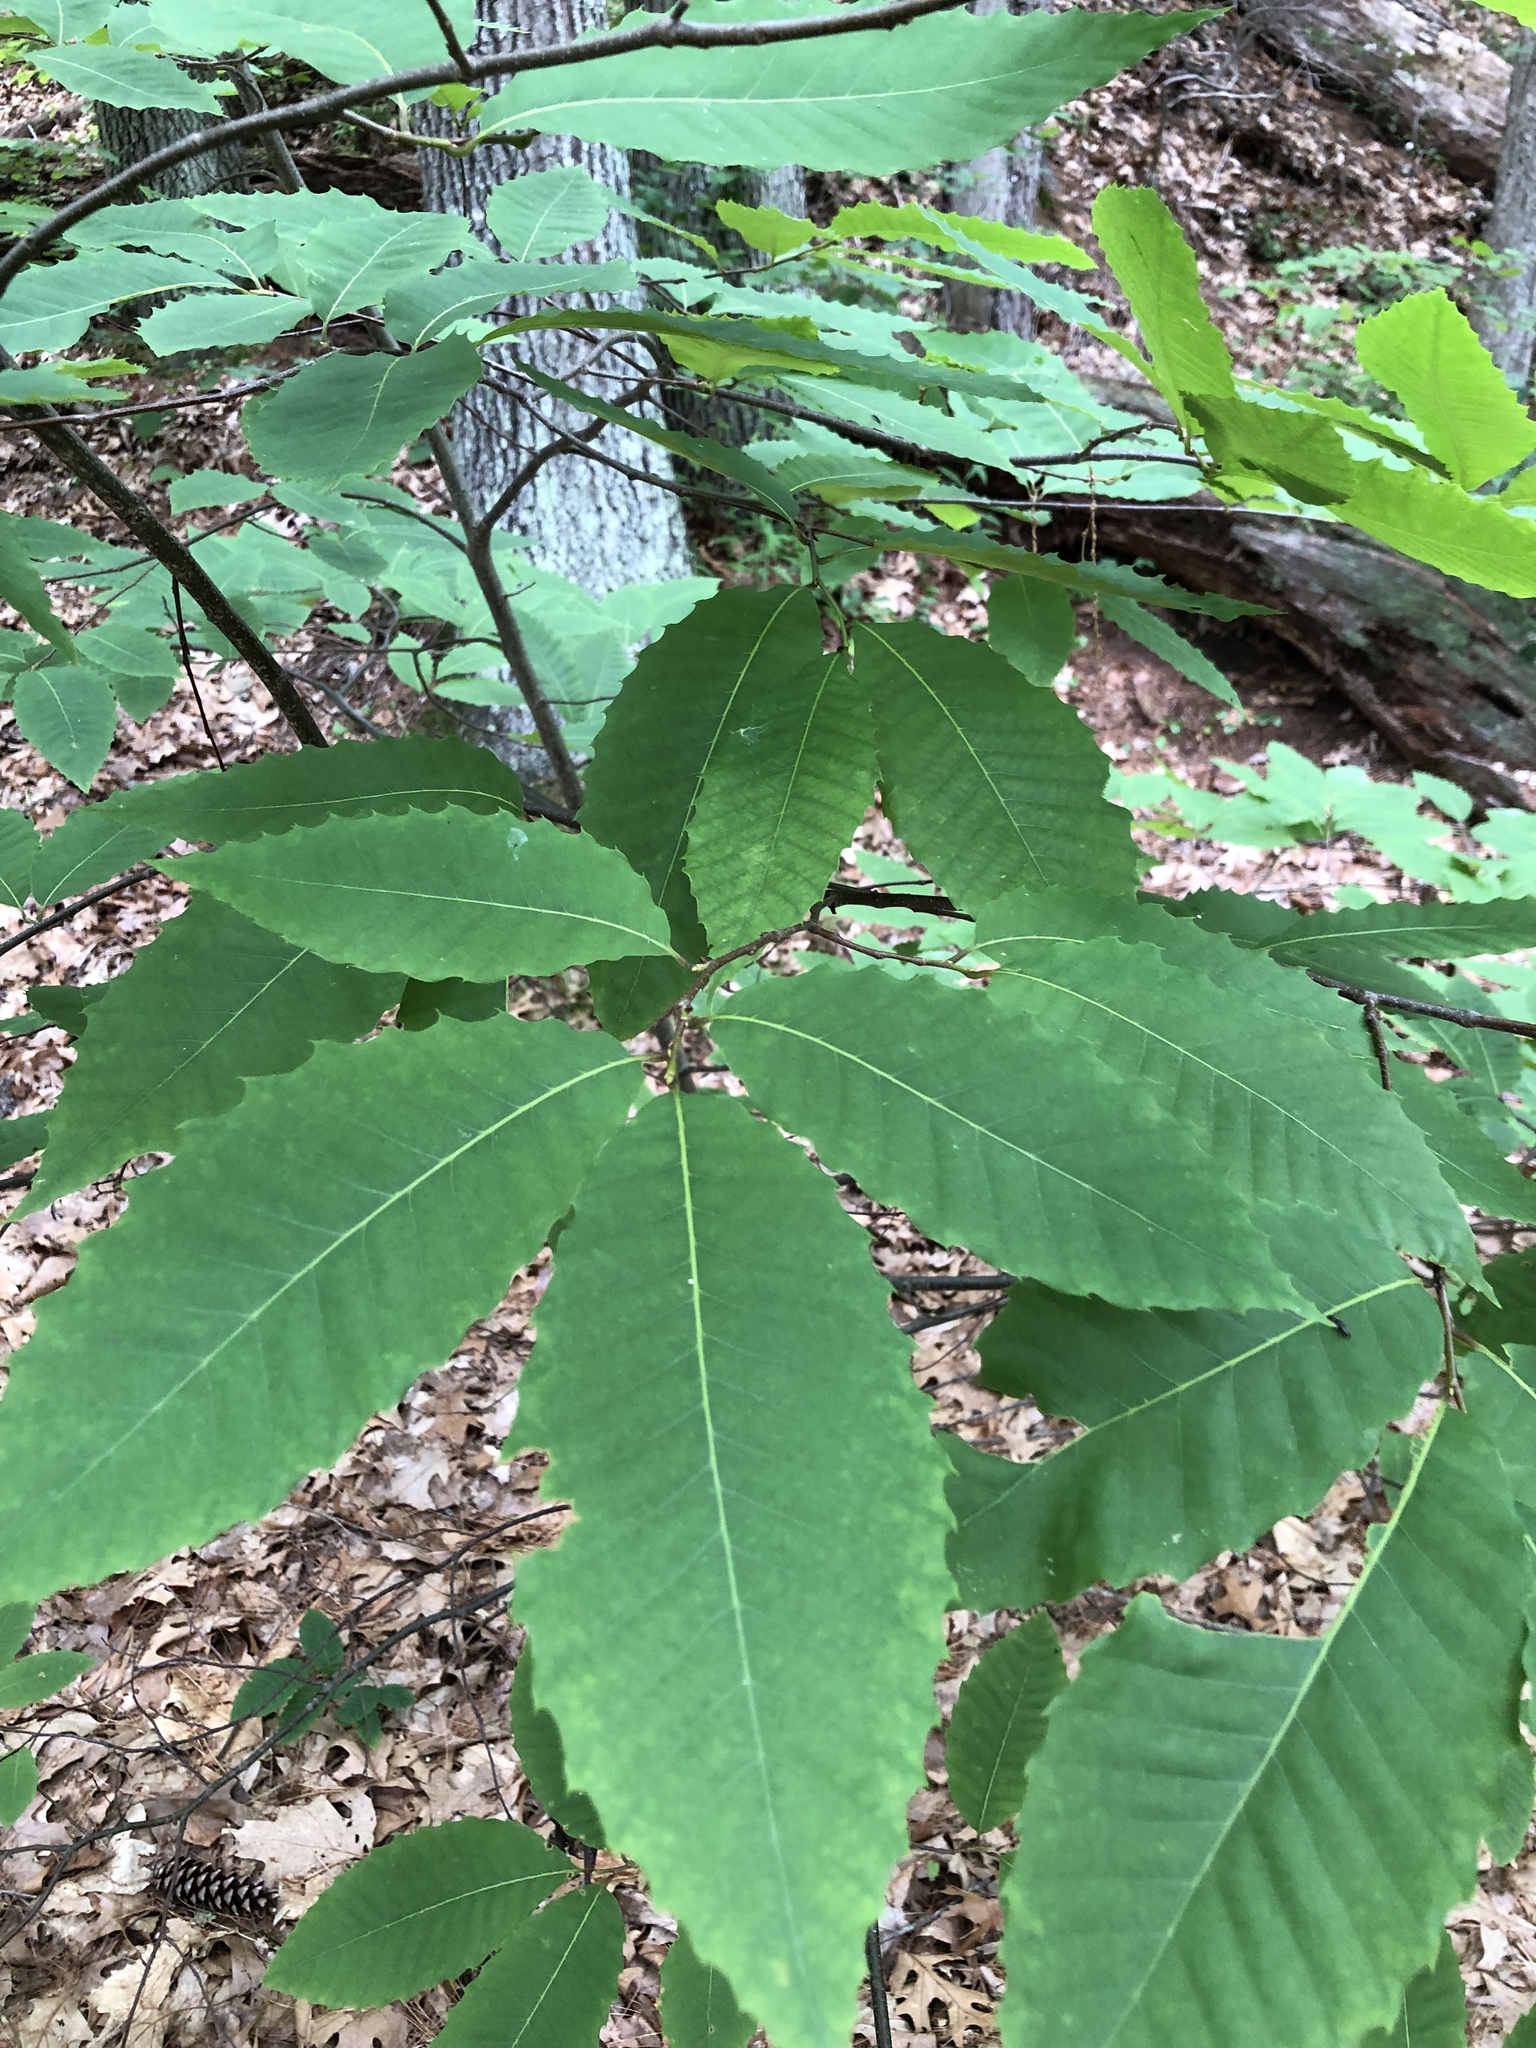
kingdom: Plantae
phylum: Tracheophyta
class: Magnoliopsida
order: Fagales
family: Fagaceae
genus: Castanea
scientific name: Castanea dentata
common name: American chestnut
